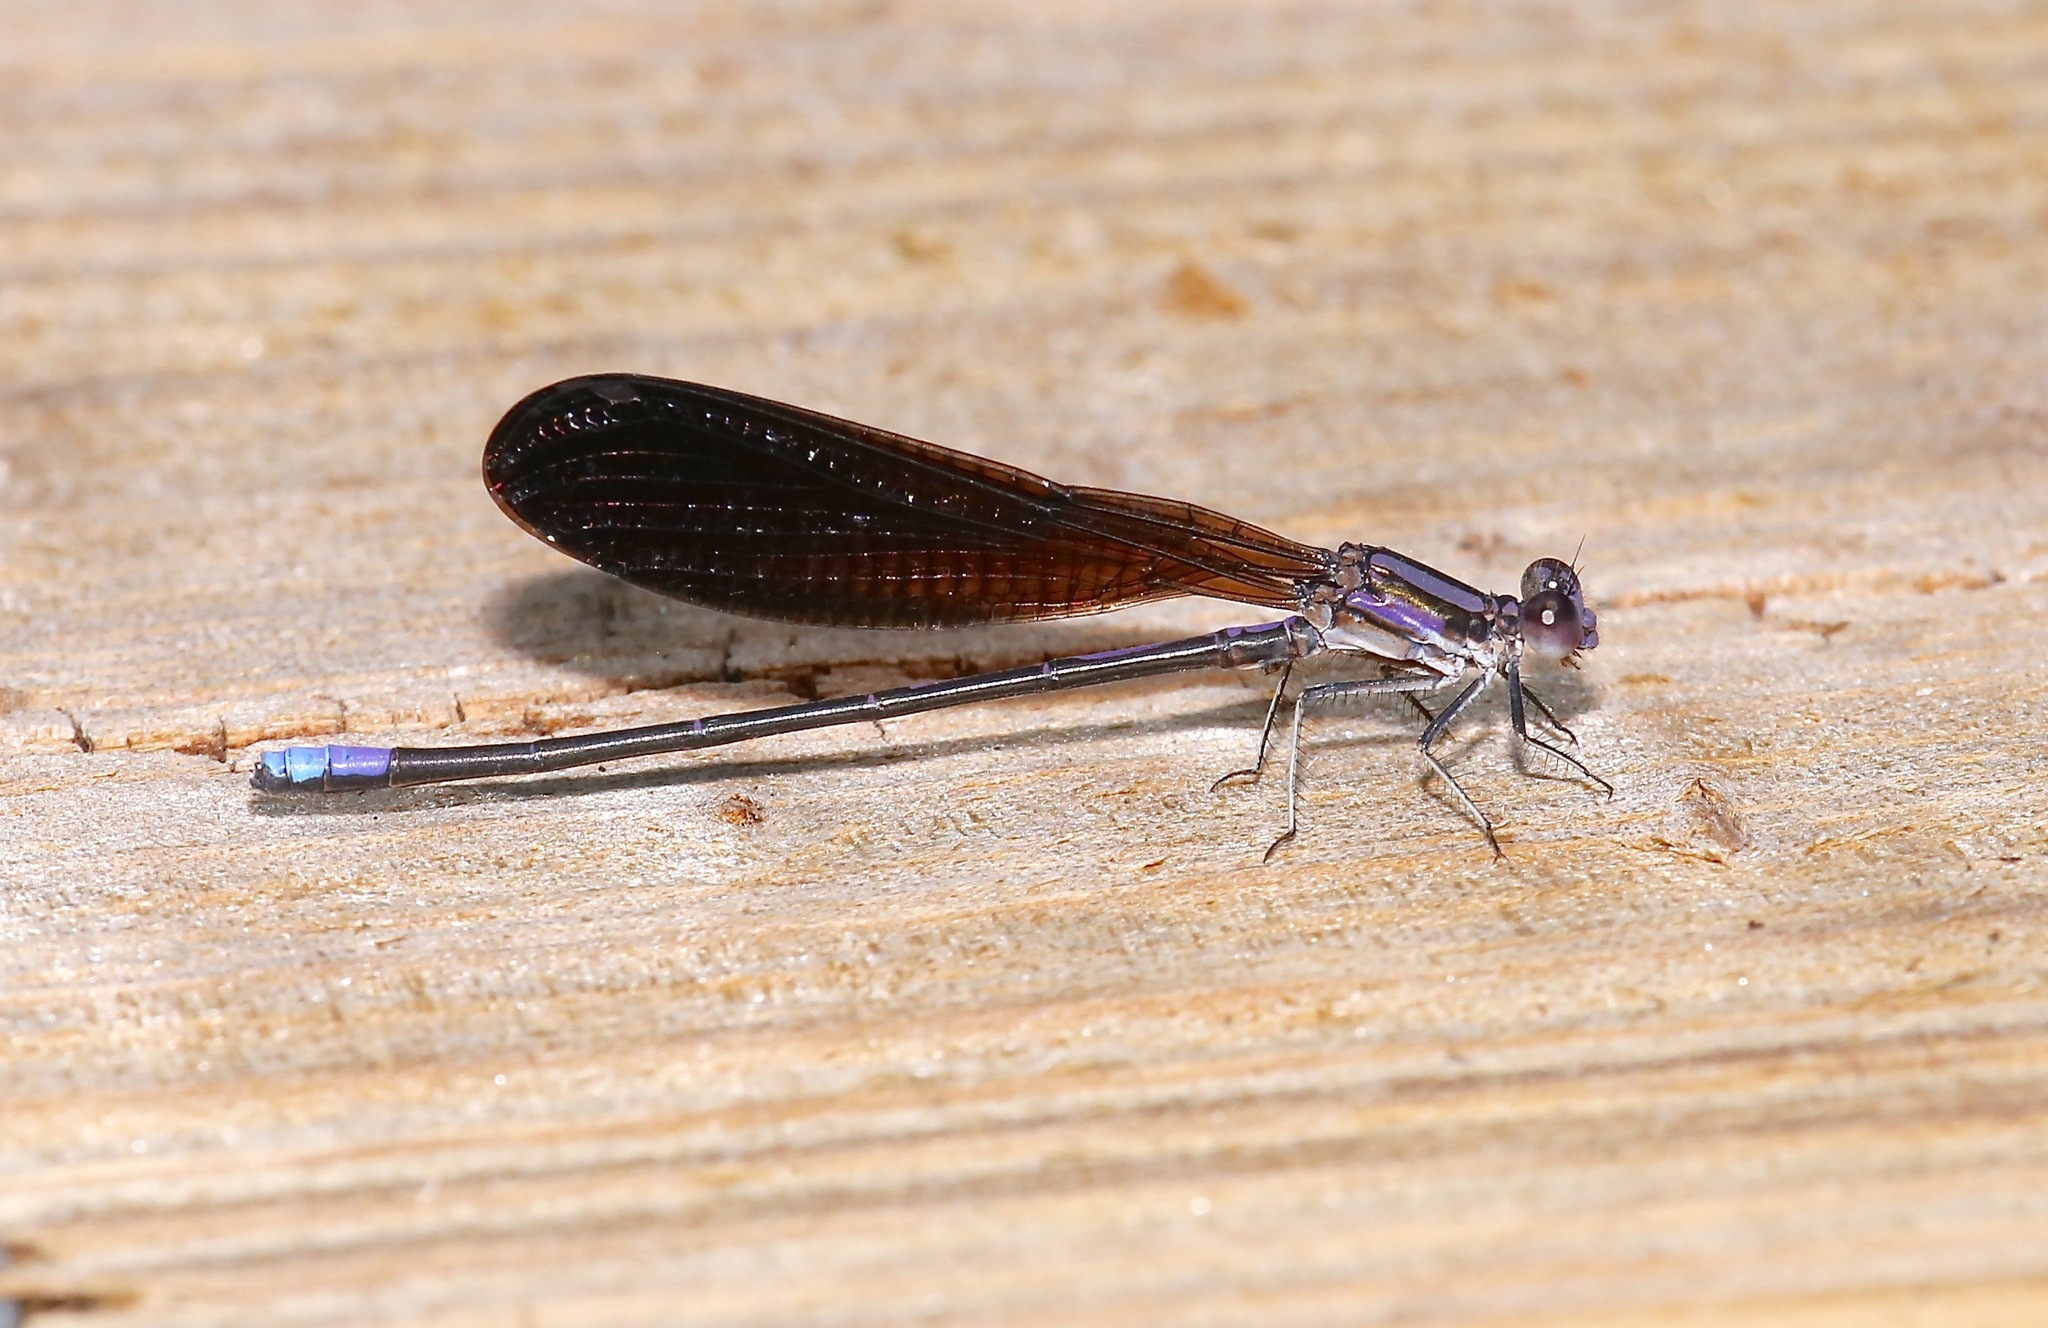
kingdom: Animalia
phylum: Arthropoda
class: Insecta
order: Odonata
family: Coenagrionidae
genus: Argia
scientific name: Argia fumipennis
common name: Variable dancer
